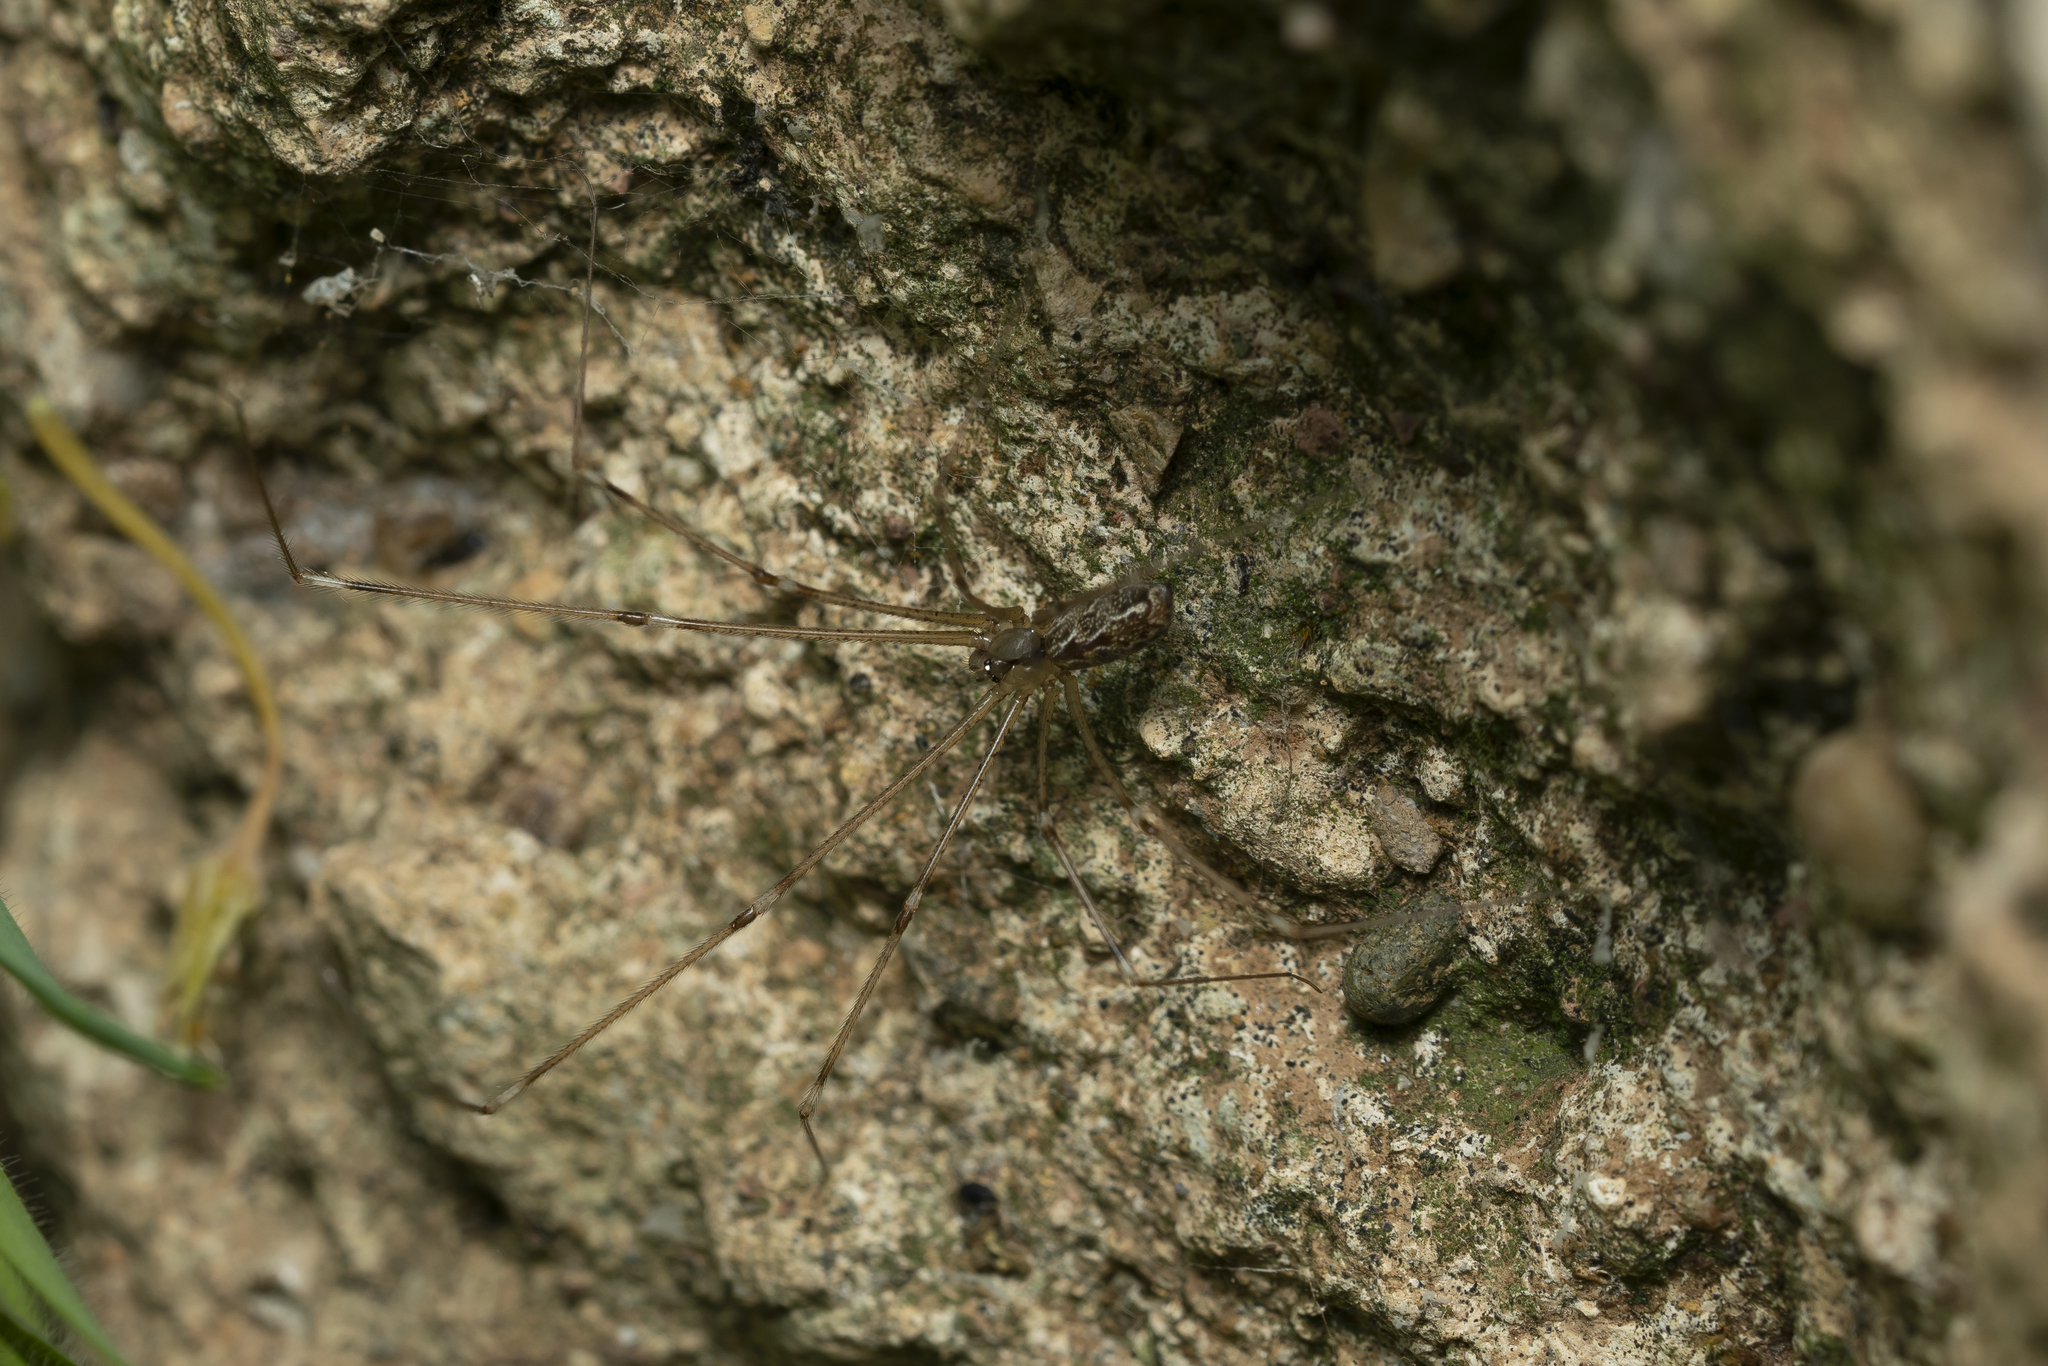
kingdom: Animalia
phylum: Arthropoda
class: Arachnida
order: Araneae
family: Pholcidae
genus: Holocnemus
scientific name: Holocnemus pluchei
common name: Marbled cellar spider
